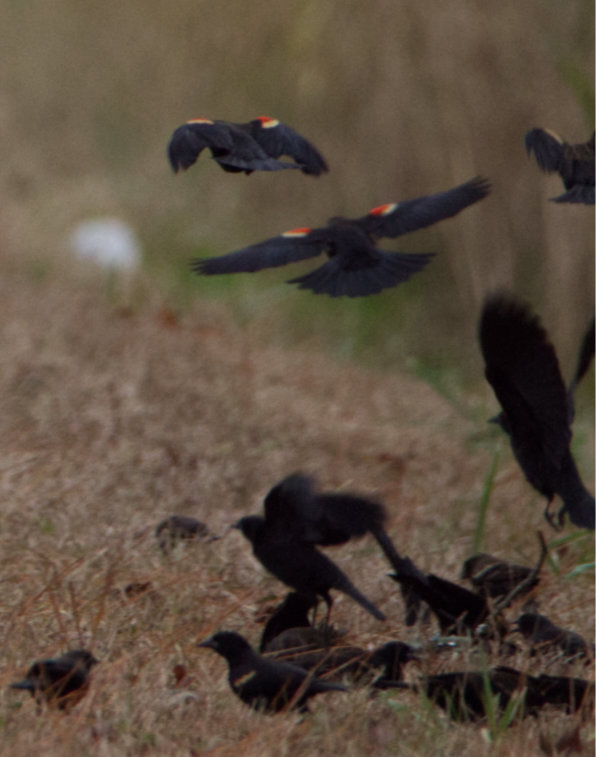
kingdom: Animalia
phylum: Chordata
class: Aves
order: Passeriformes
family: Icteridae
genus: Agelaius
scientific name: Agelaius phoeniceus
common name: Red-winged blackbird
